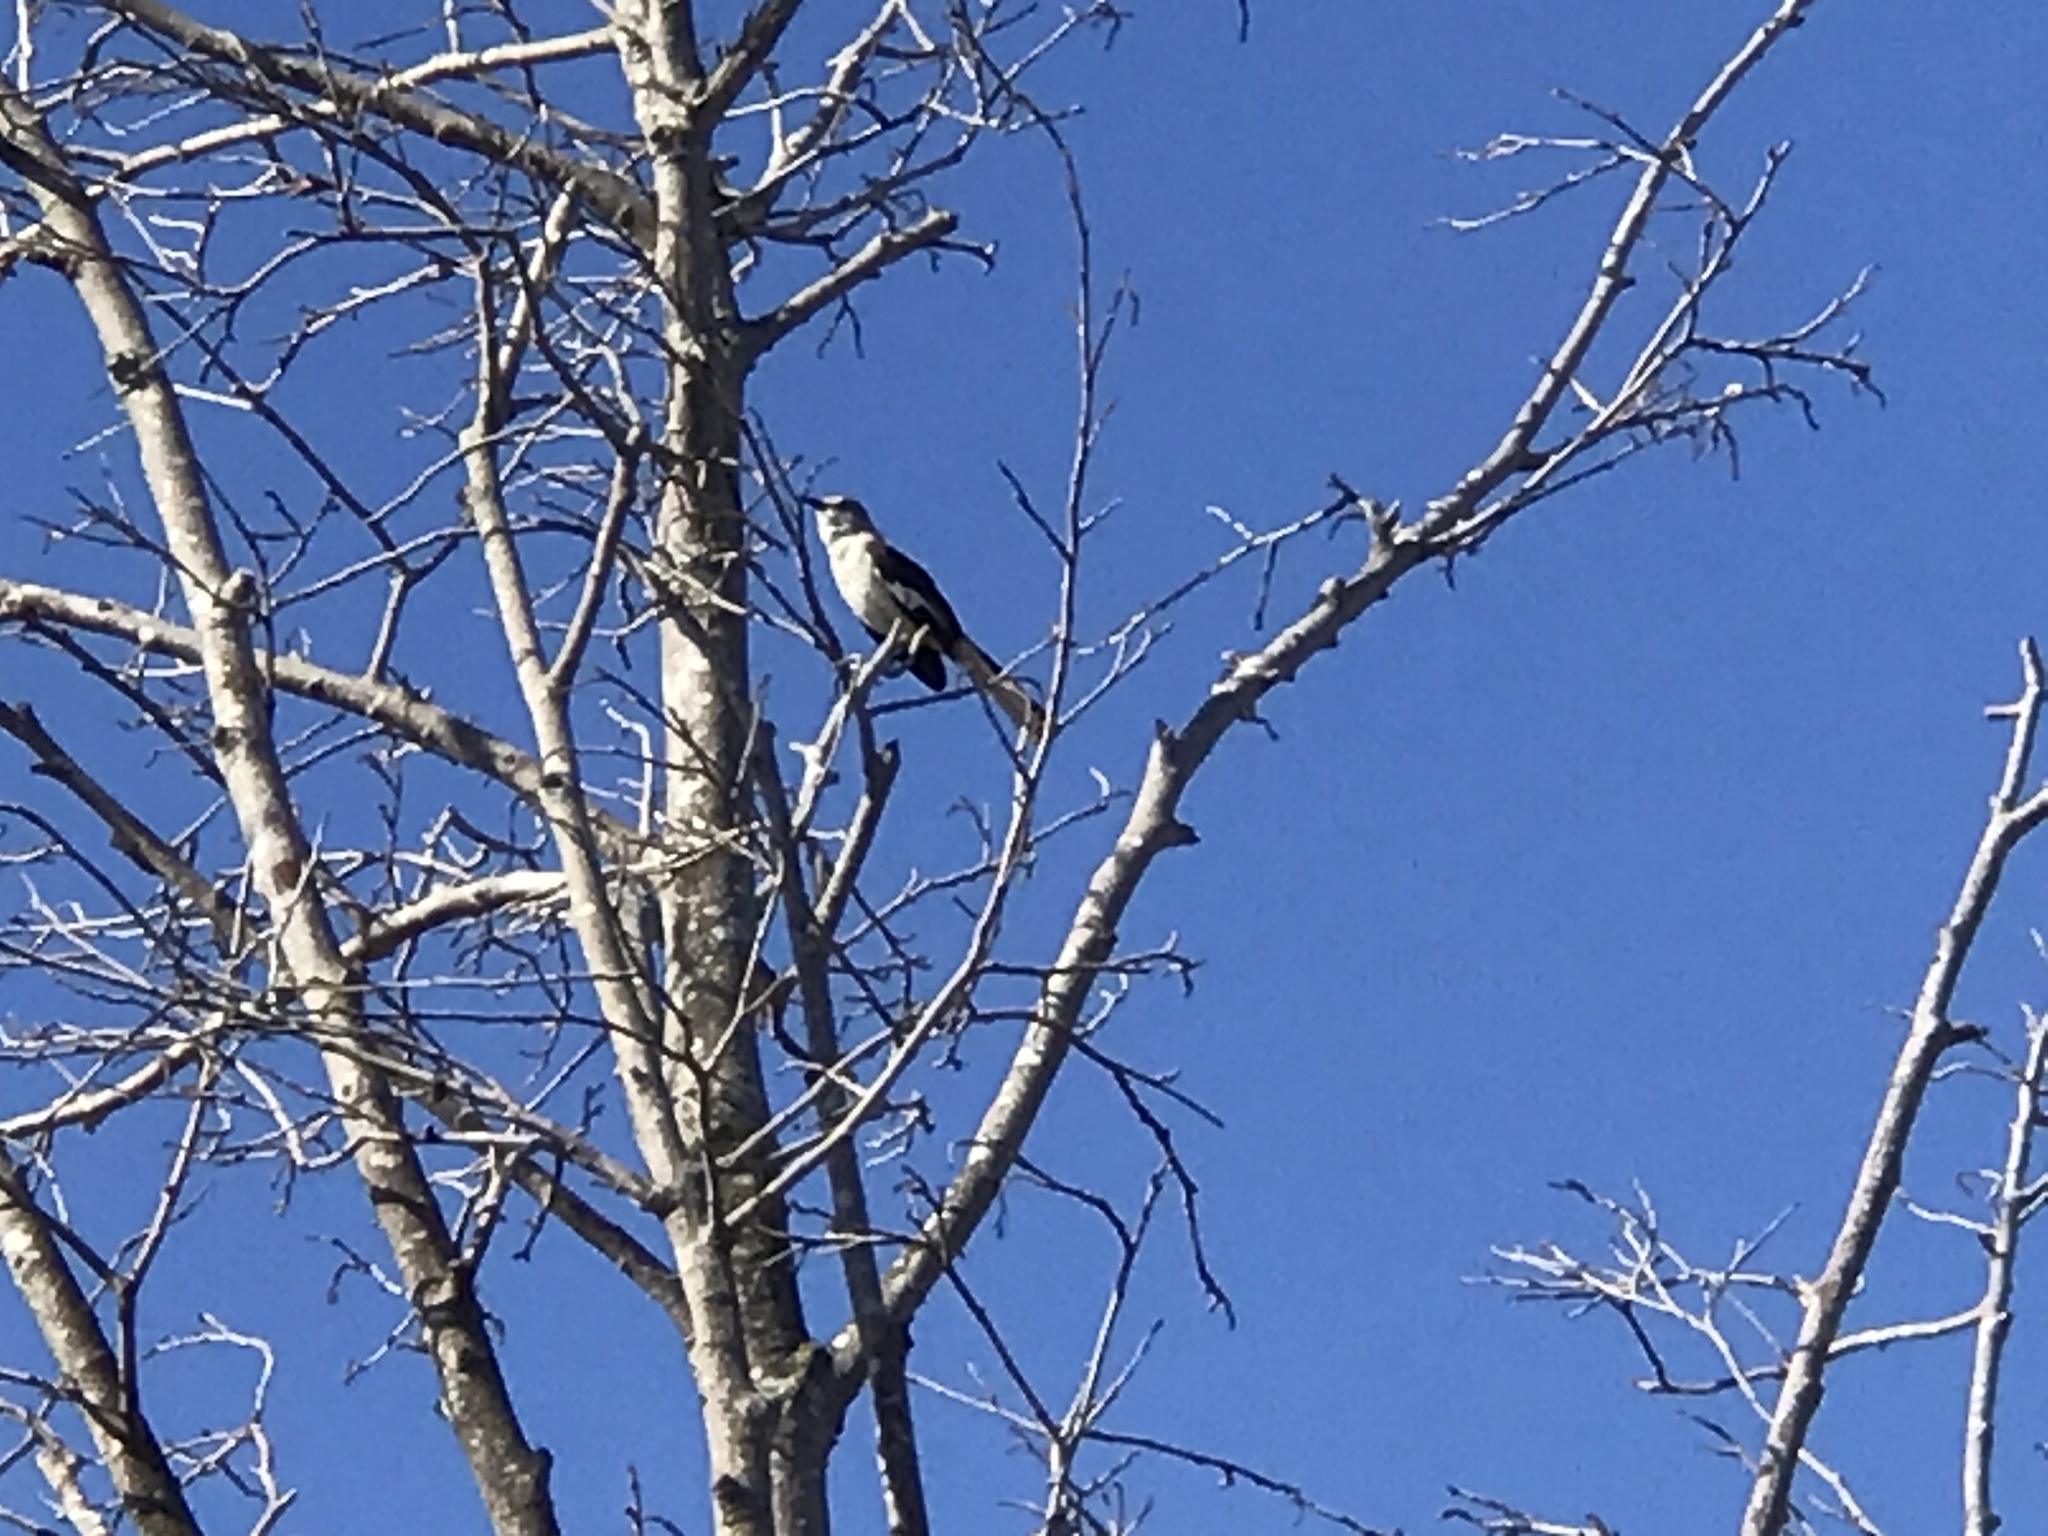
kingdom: Animalia
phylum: Chordata
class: Aves
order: Passeriformes
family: Mimidae
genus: Mimus
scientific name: Mimus polyglottos
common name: Northern mockingbird
